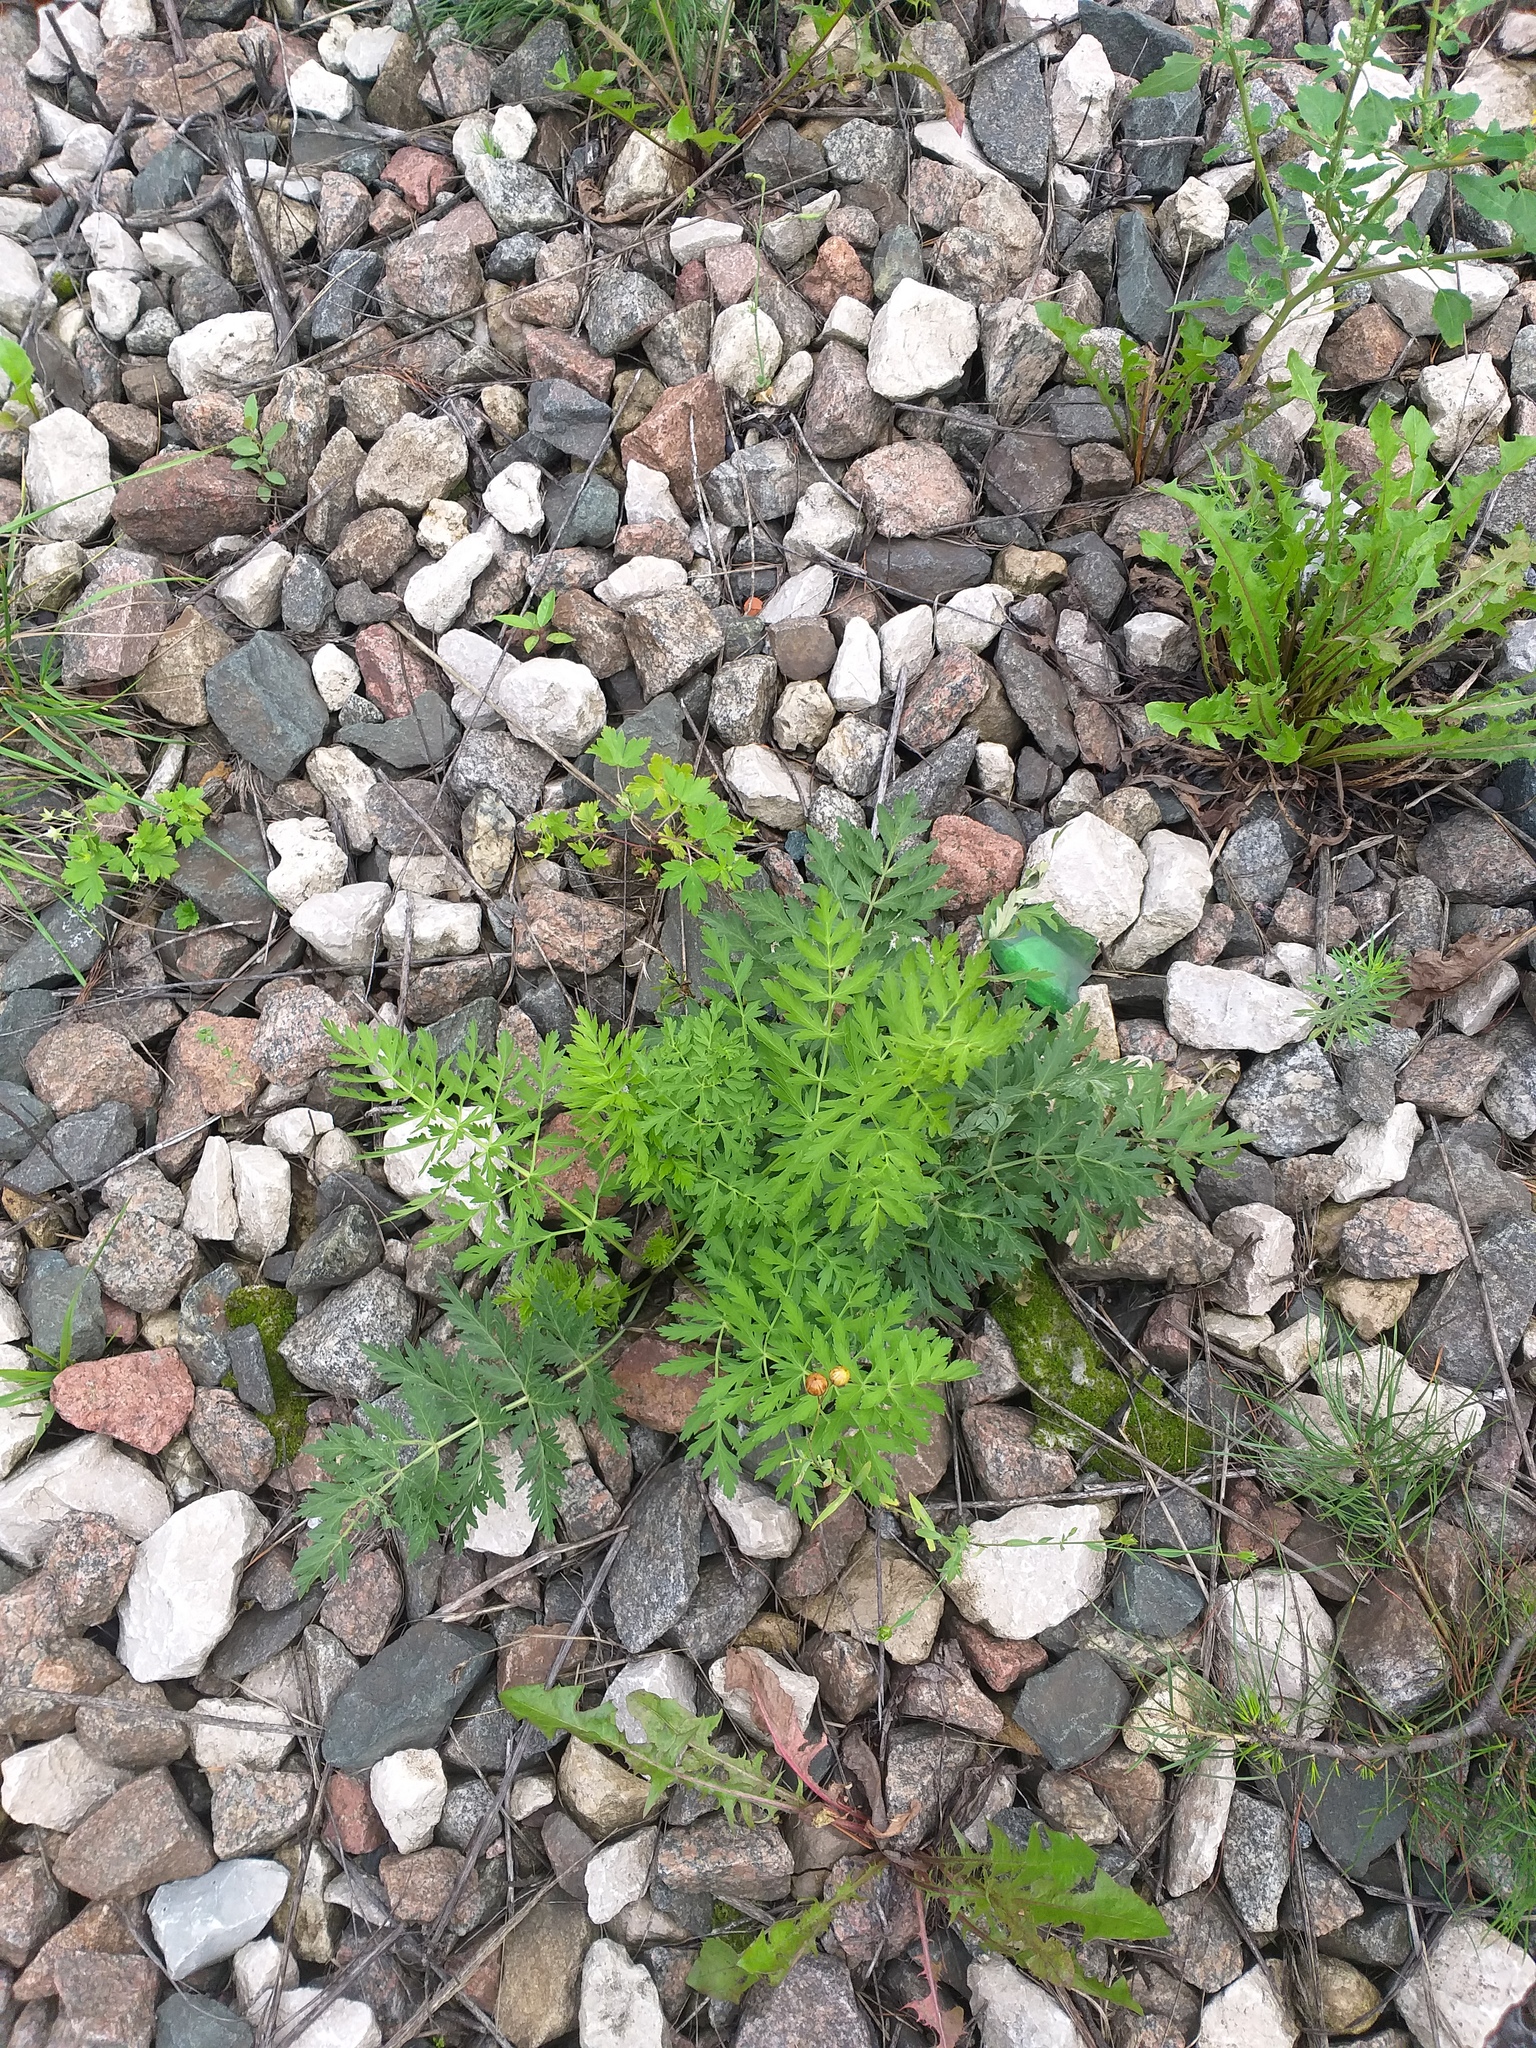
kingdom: Plantae
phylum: Tracheophyta
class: Magnoliopsida
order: Apiales
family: Apiaceae
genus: Seseli
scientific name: Seseli libanotis
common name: Mooncarrot
